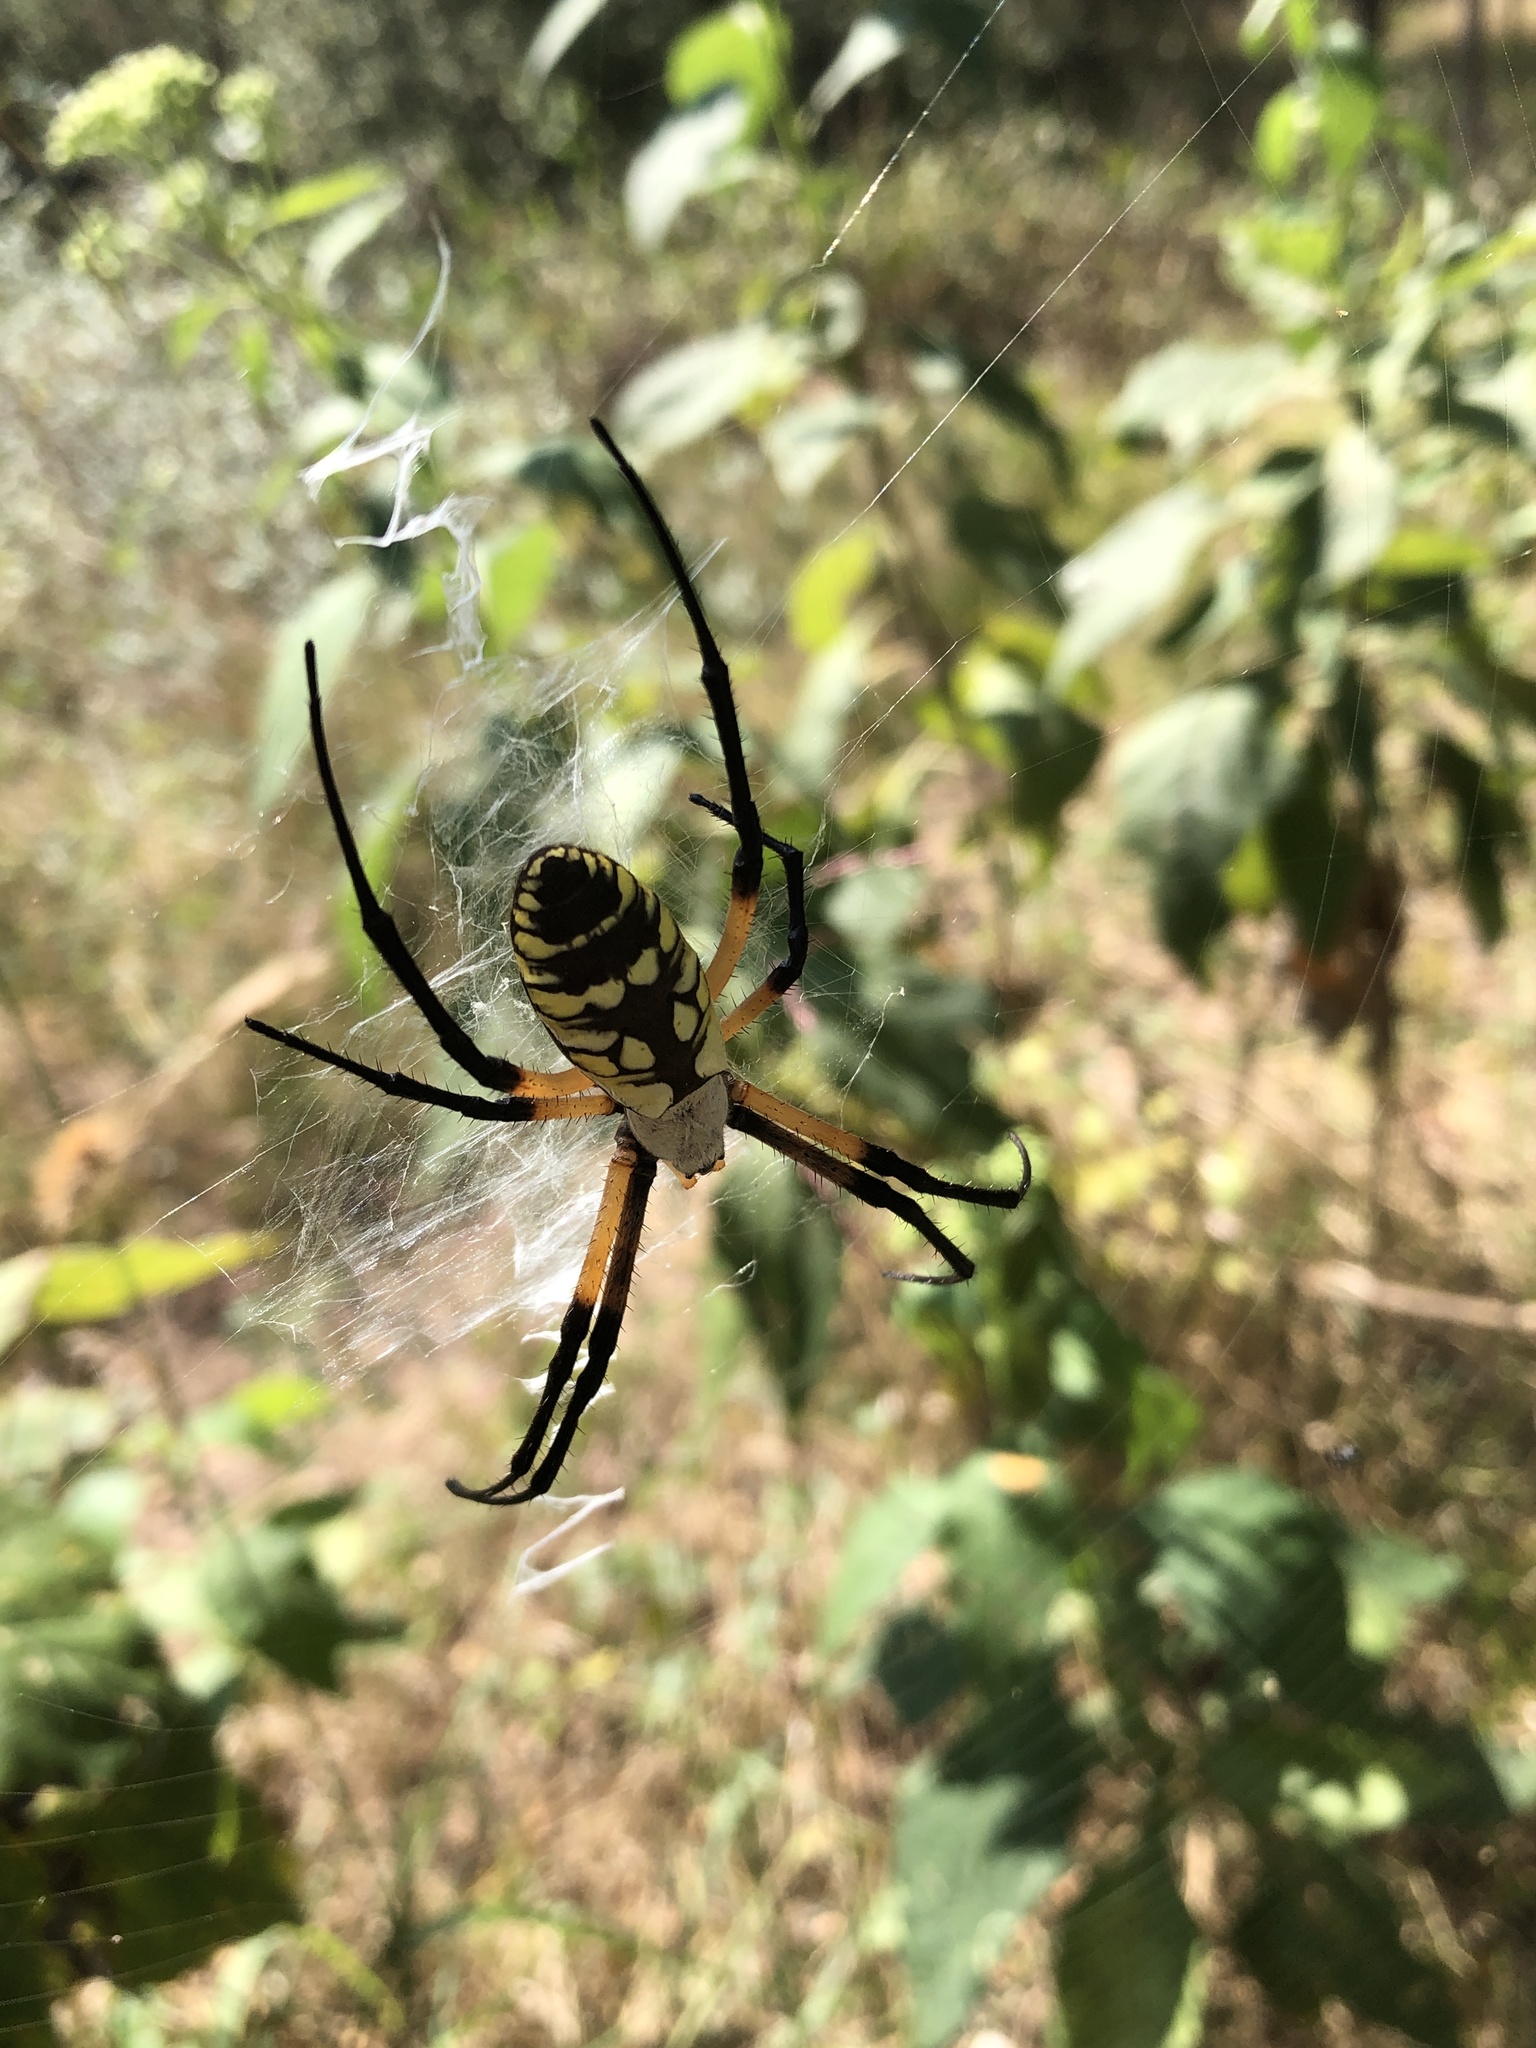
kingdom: Animalia
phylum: Arthropoda
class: Arachnida
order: Araneae
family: Araneidae
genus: Argiope
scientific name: Argiope aurantia
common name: Orb weavers
